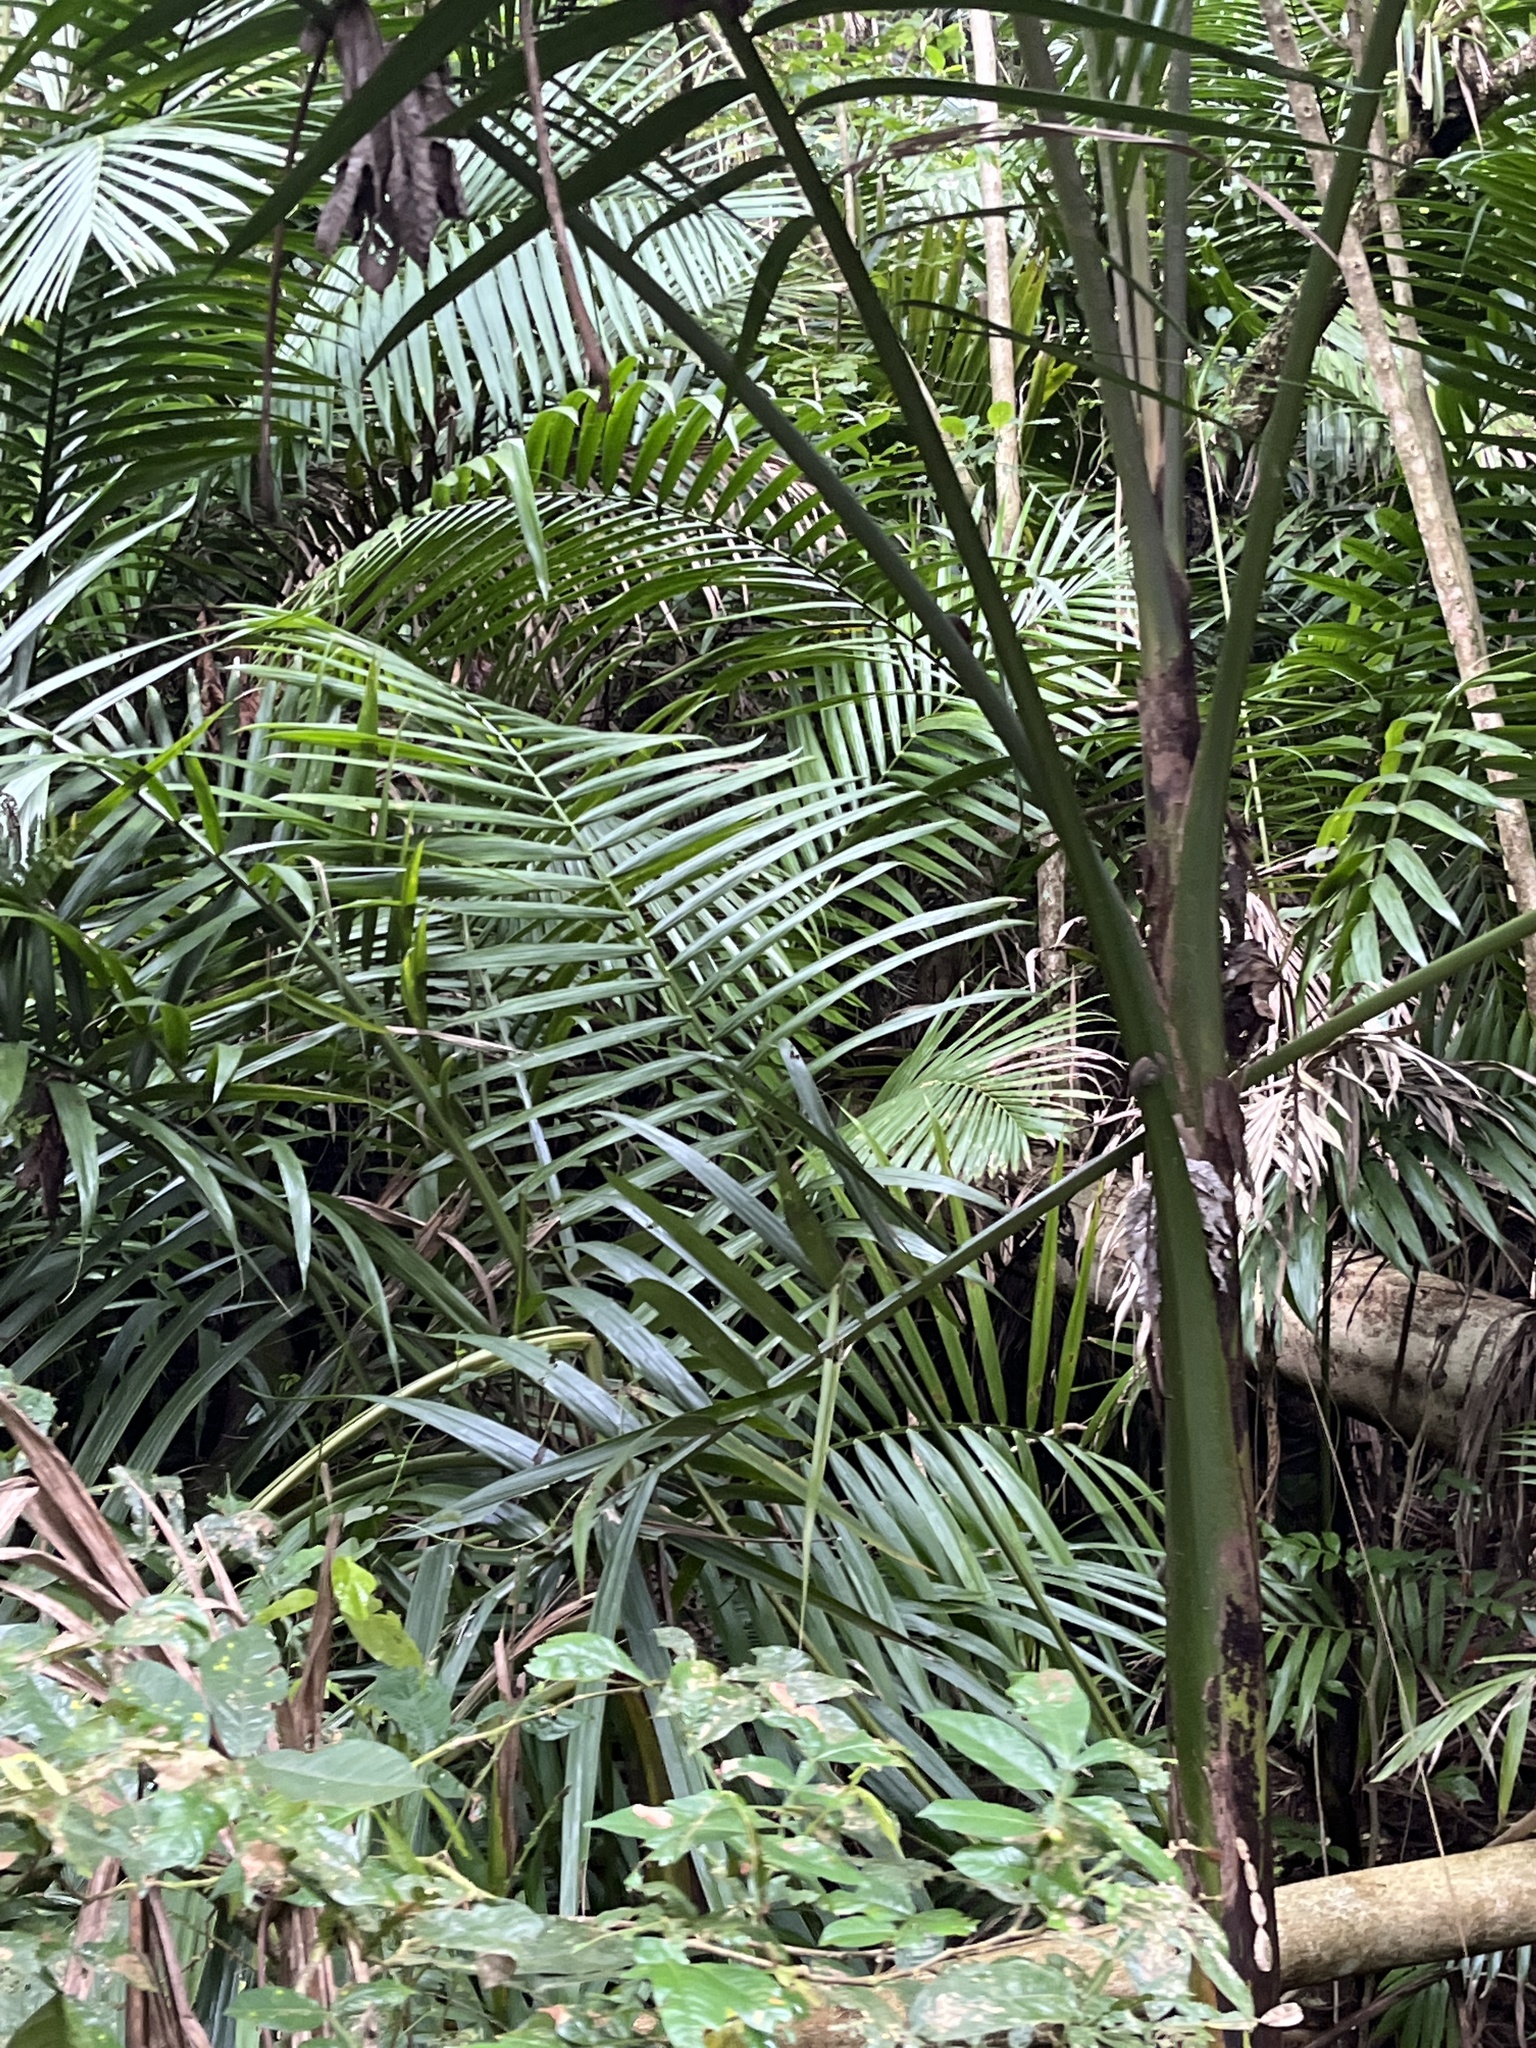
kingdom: Plantae
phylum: Tracheophyta
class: Liliopsida
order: Arecales
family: Arecaceae
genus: Prestoea
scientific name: Prestoea acuminata
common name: Sierran palm
